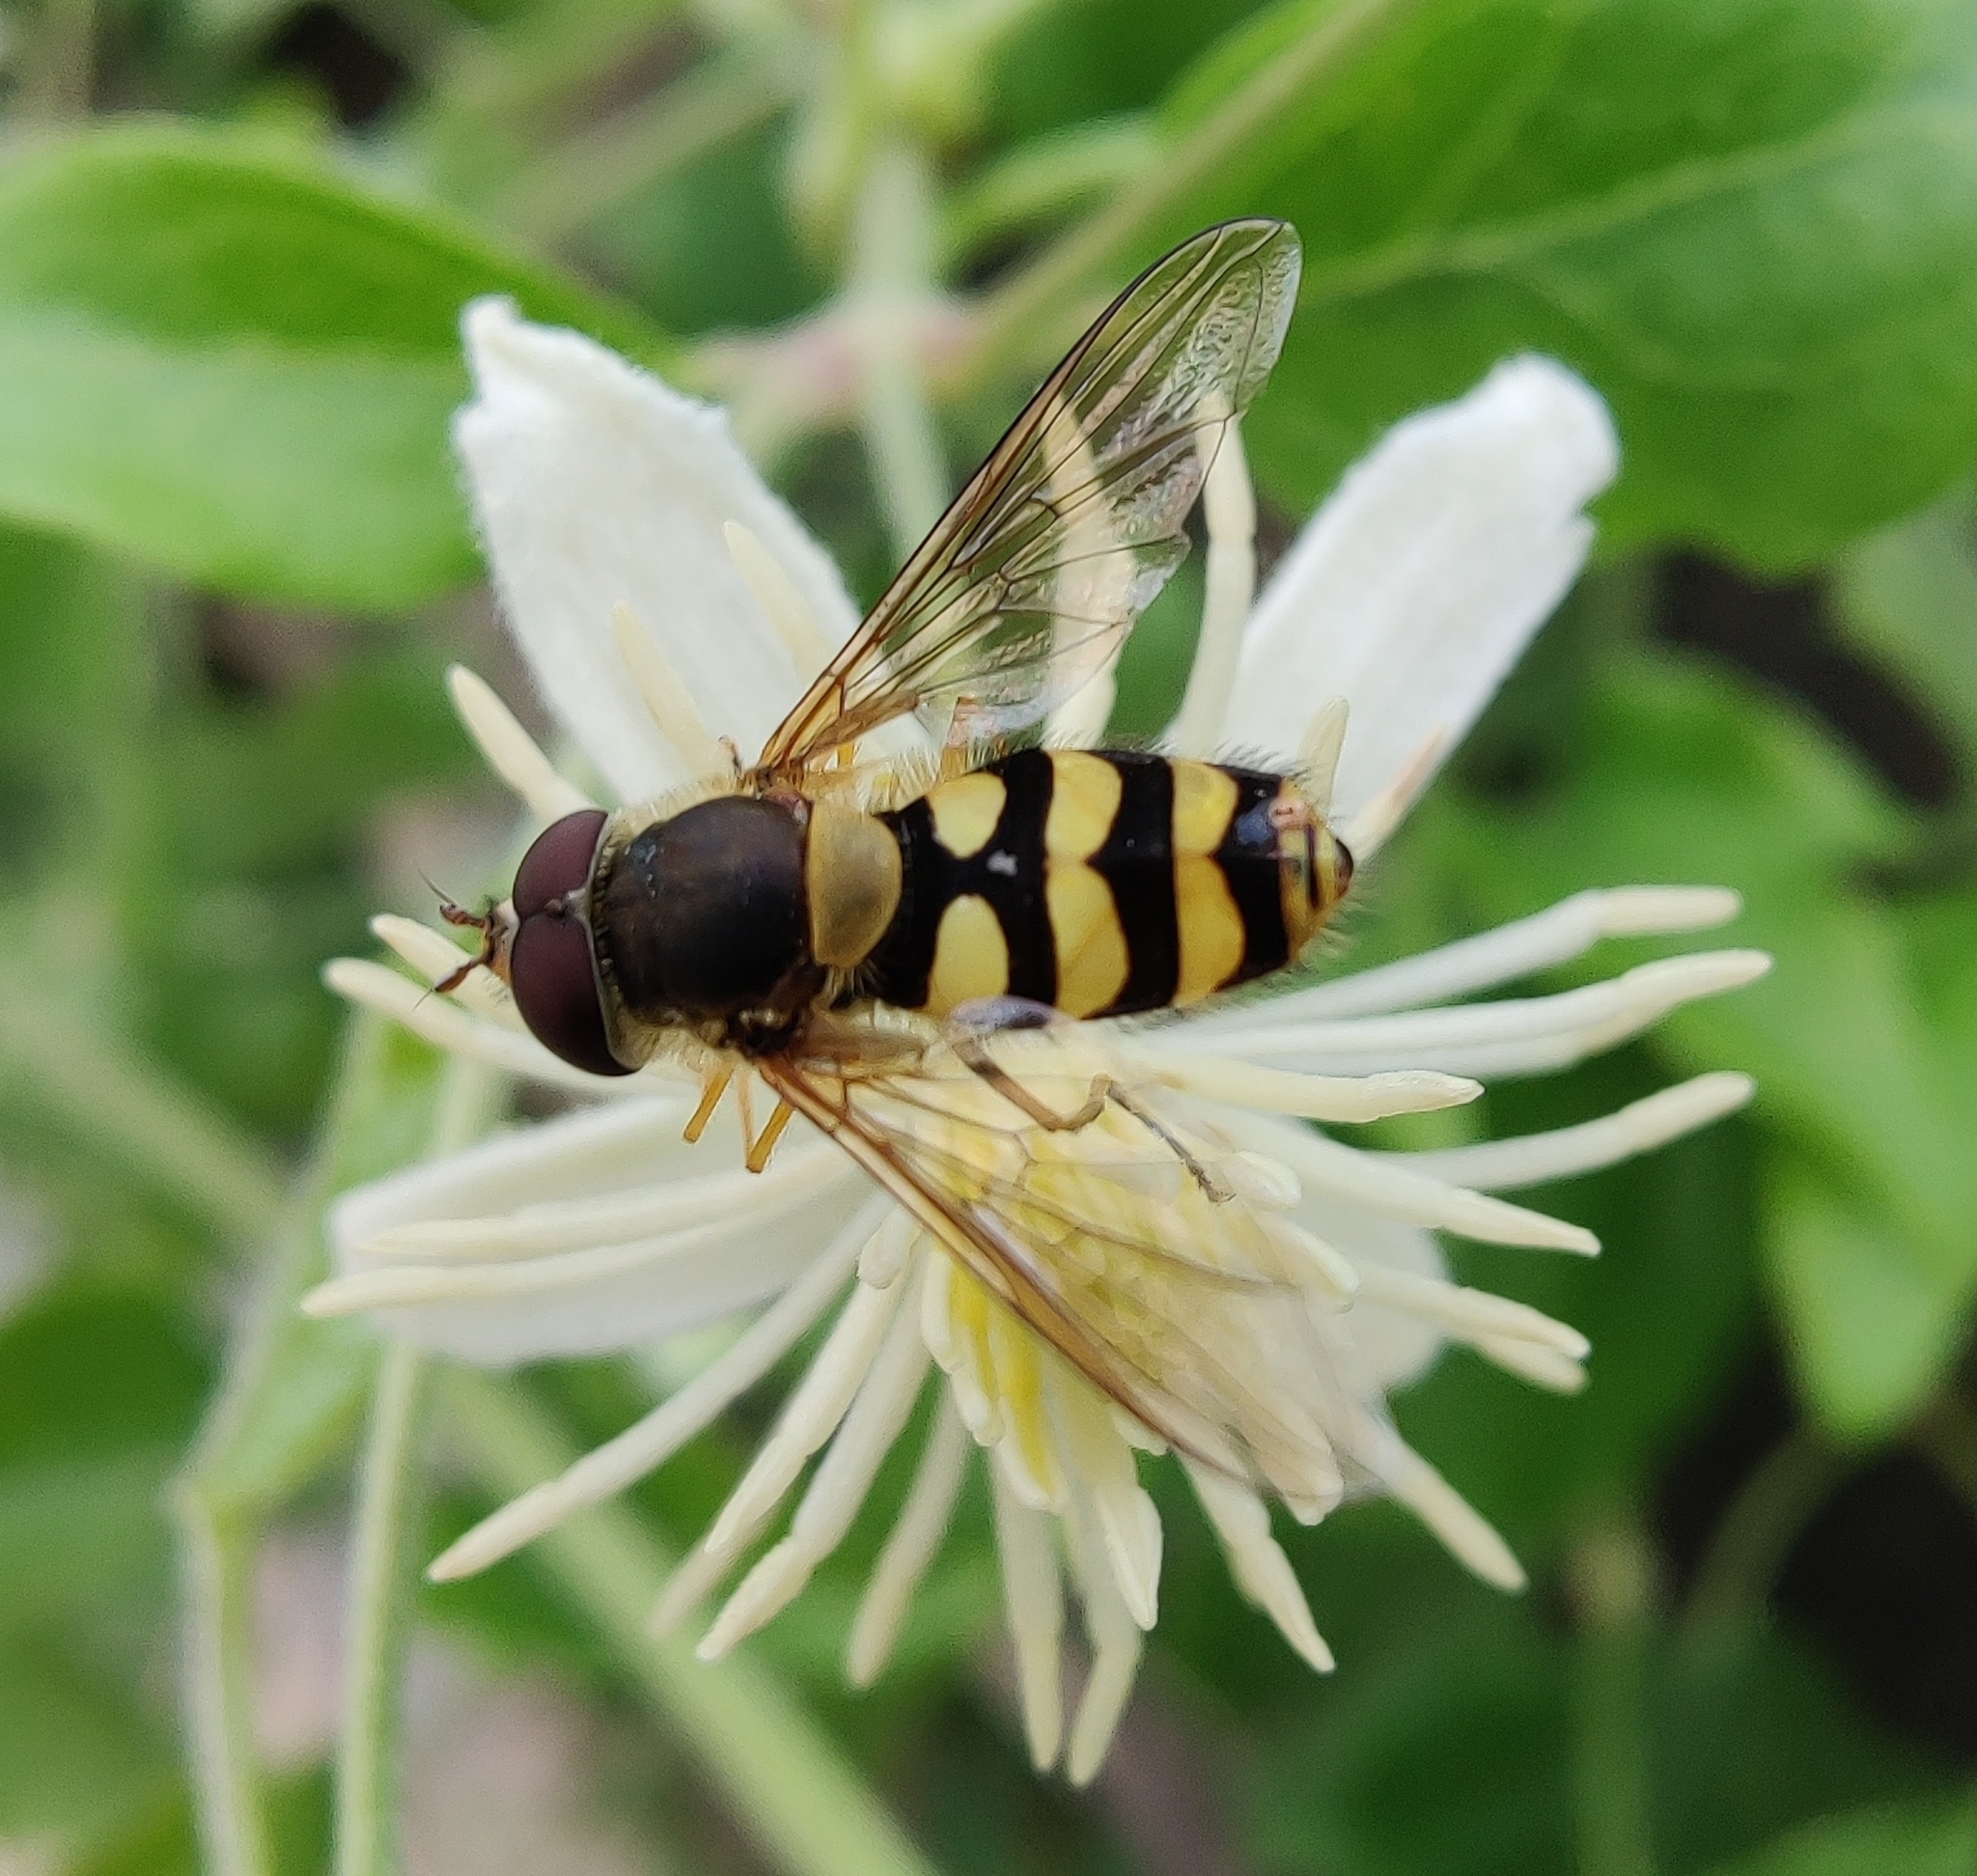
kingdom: Animalia
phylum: Arthropoda
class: Insecta
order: Diptera
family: Syrphidae
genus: Syrphus
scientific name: Syrphus
